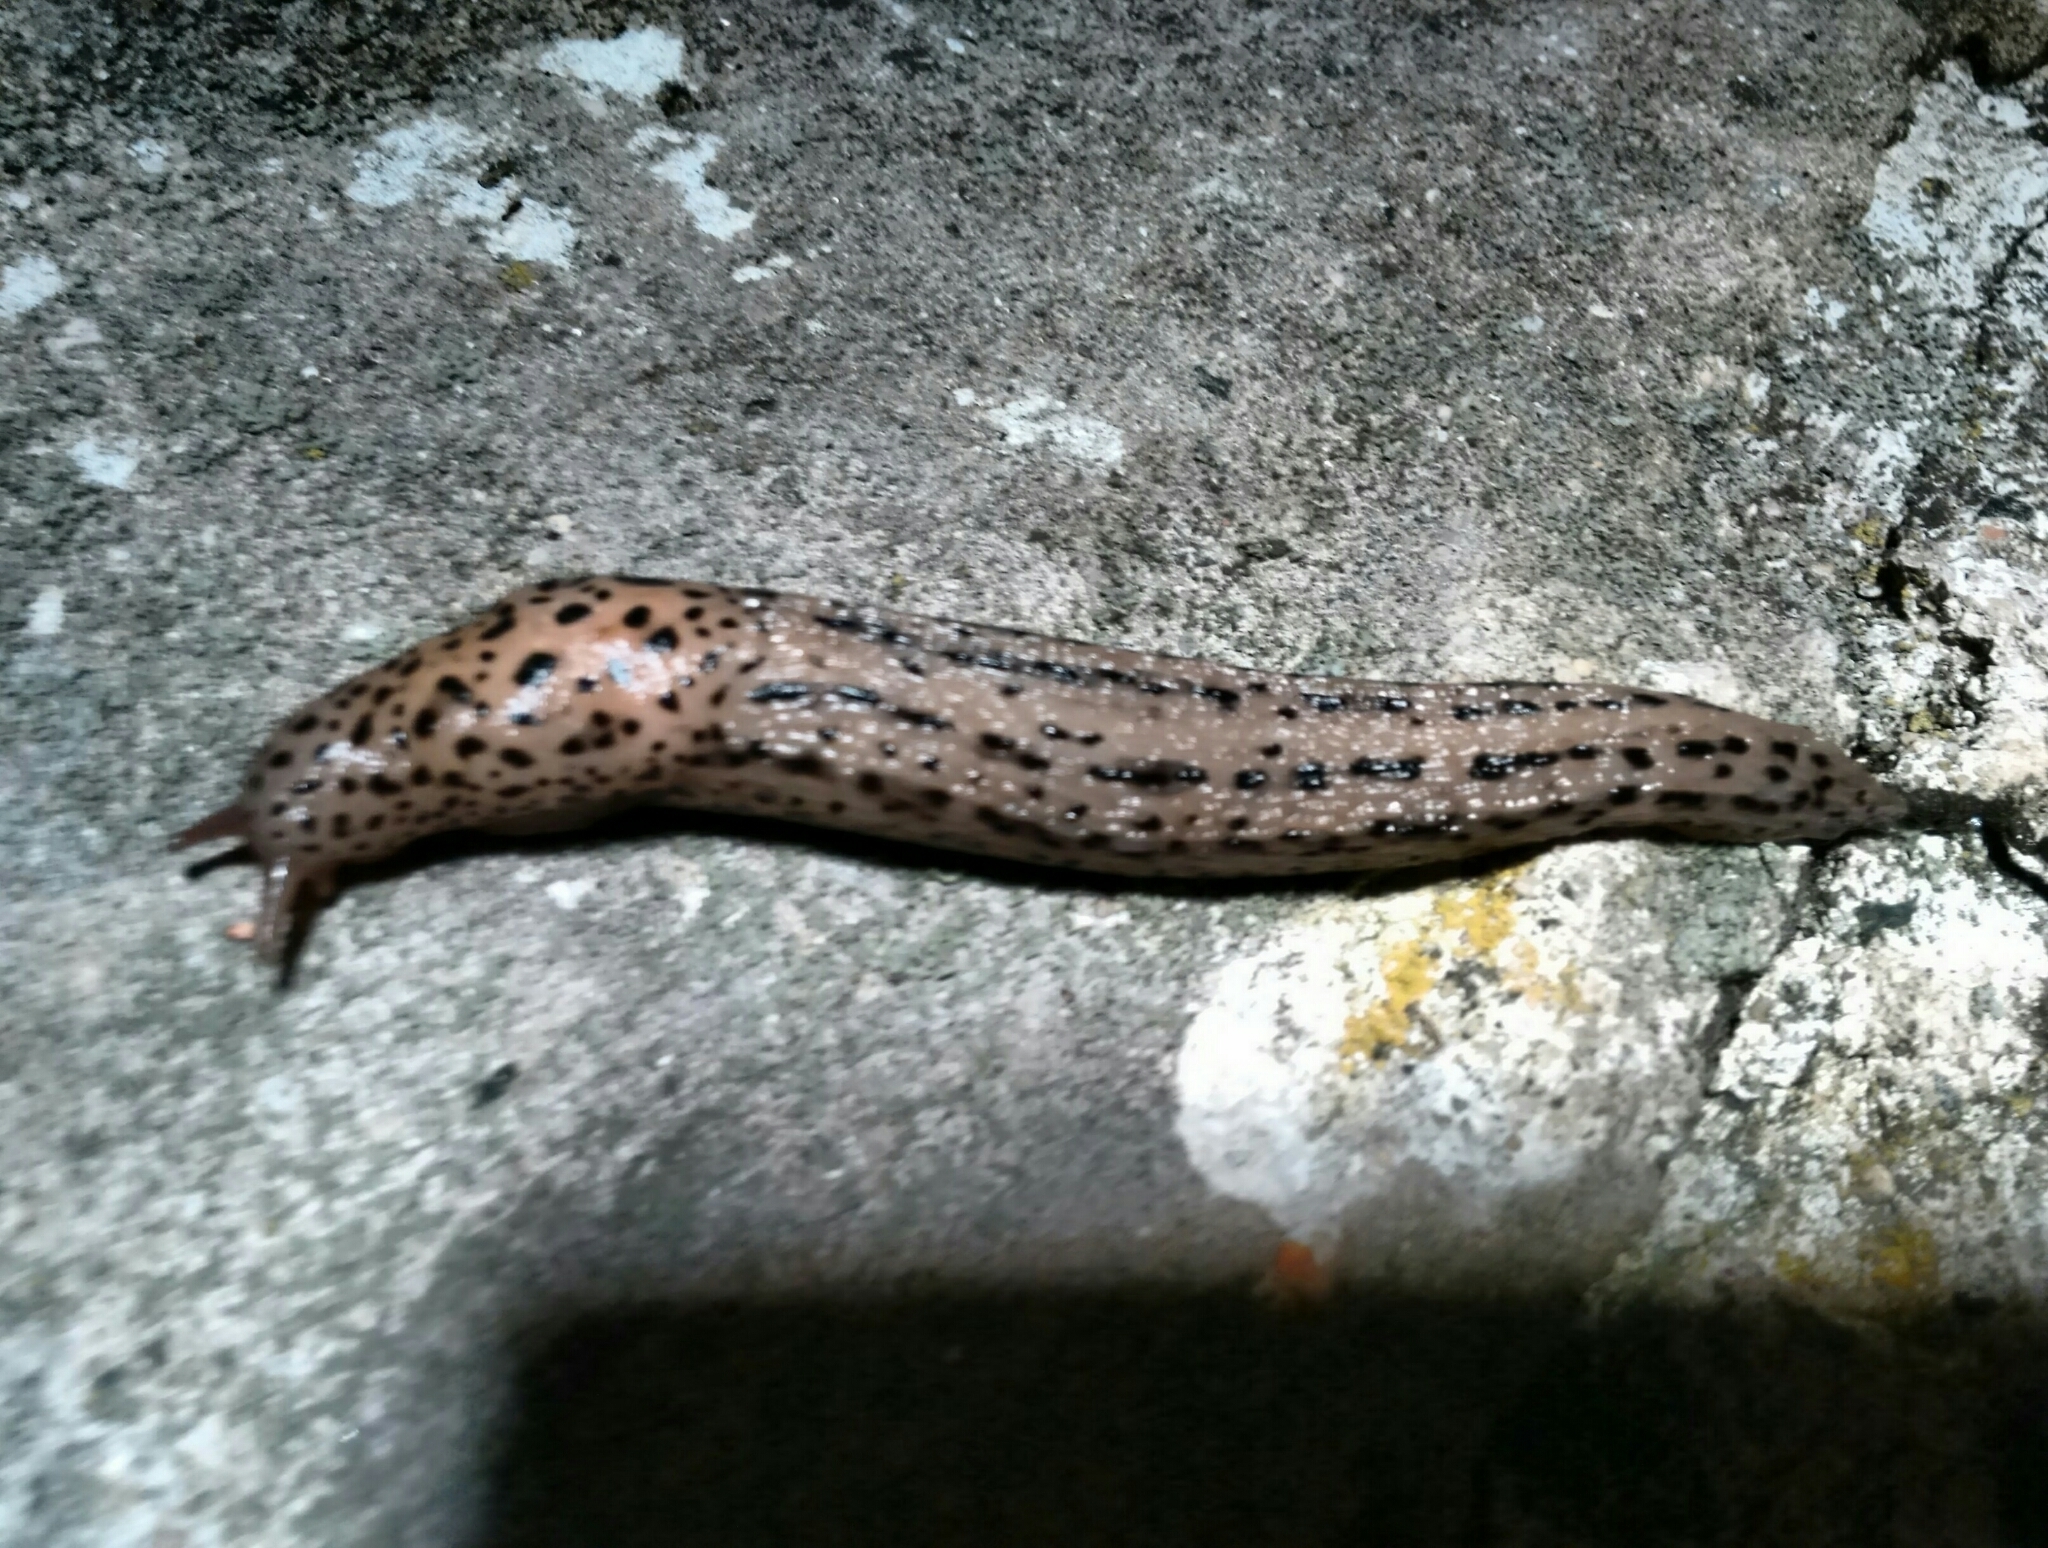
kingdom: Animalia
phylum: Mollusca
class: Gastropoda
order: Stylommatophora
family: Limacidae
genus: Limax
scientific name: Limax maximus
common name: Great grey slug
